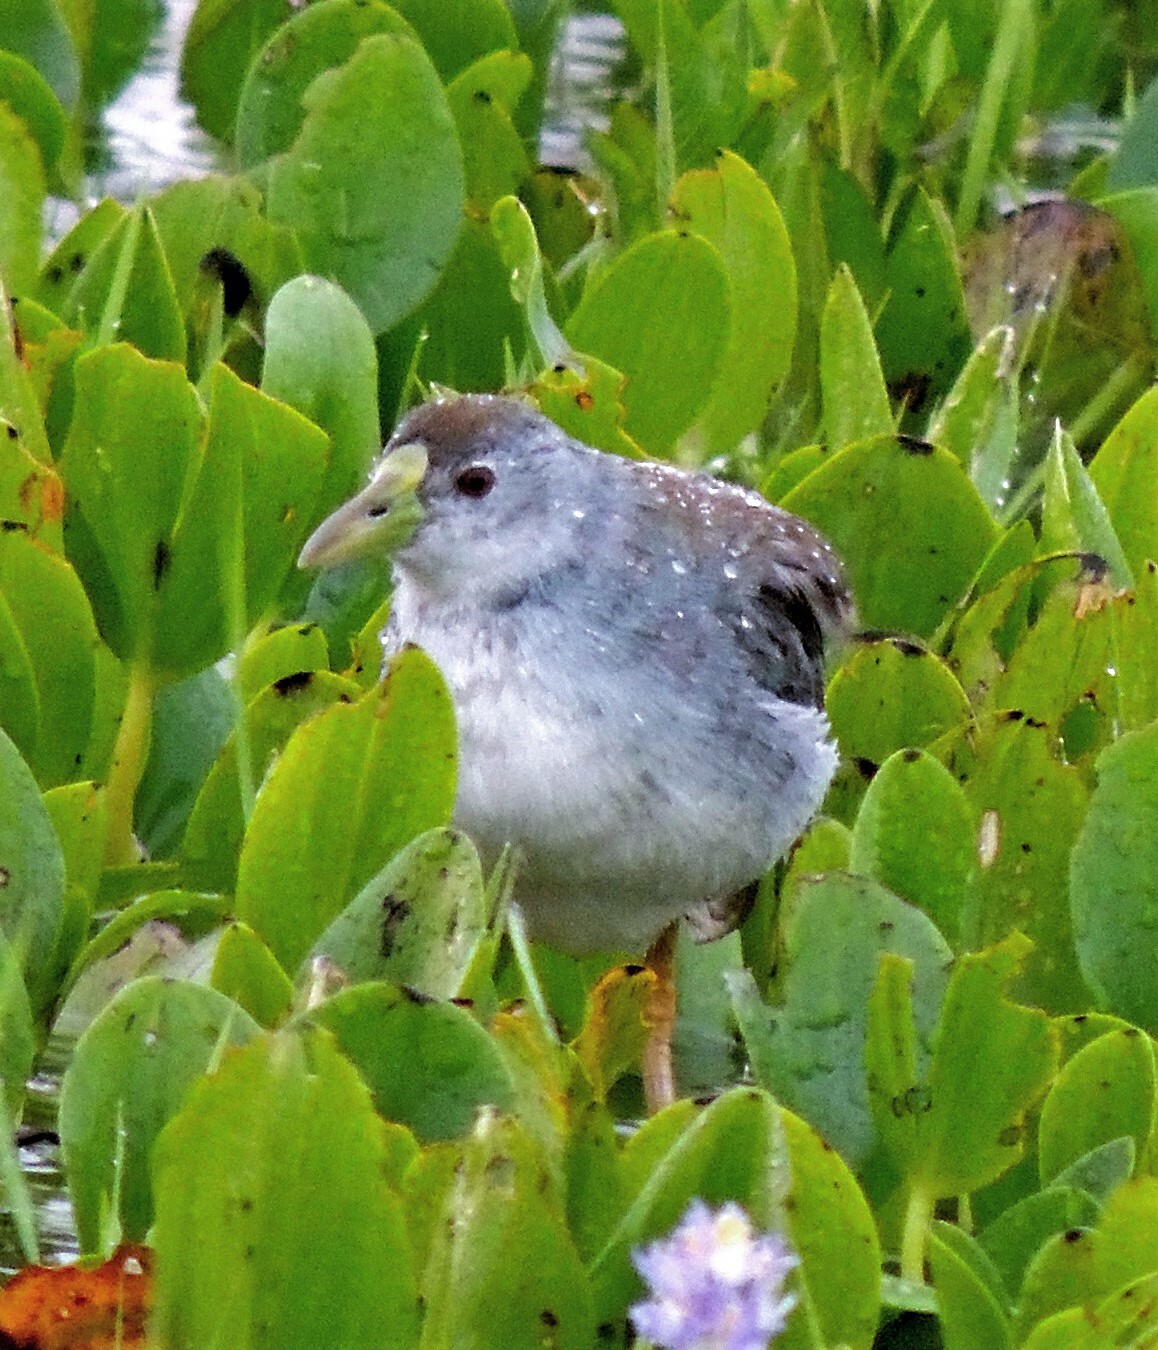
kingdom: Animalia
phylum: Chordata
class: Aves
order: Gruiformes
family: Rallidae
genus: Porphyrio
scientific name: Porphyrio flavirostris
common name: Azure gallinule
